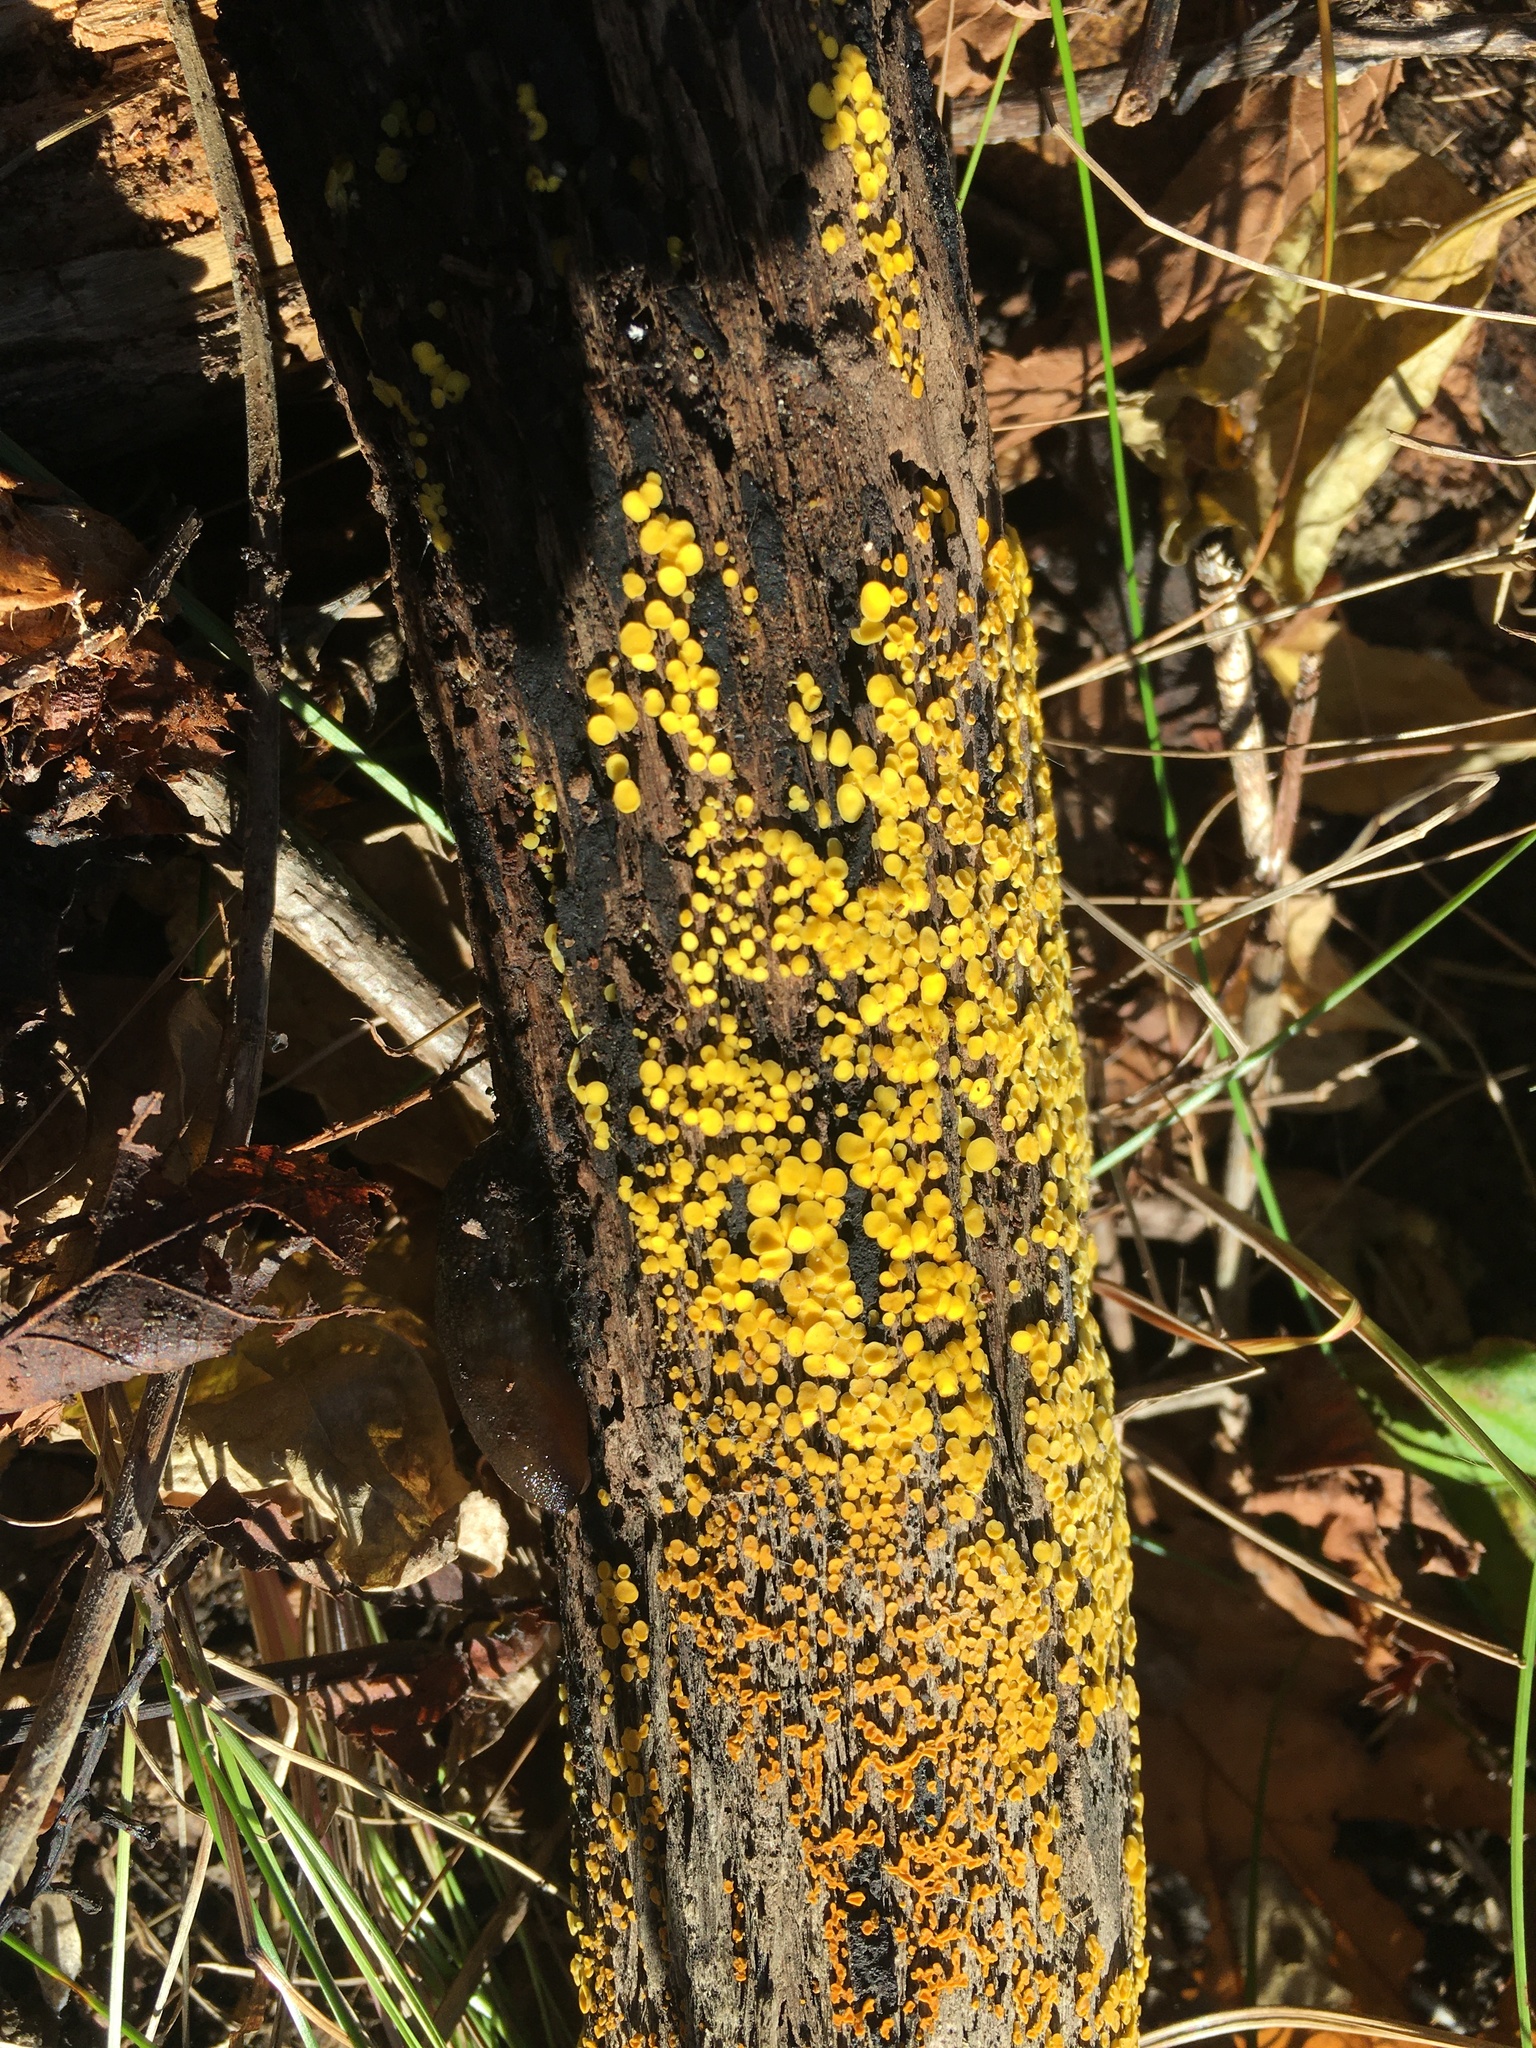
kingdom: Fungi
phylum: Ascomycota
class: Leotiomycetes
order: Helotiales
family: Pezizellaceae
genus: Calycina
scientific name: Calycina citrina
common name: Yellow fairy cups
